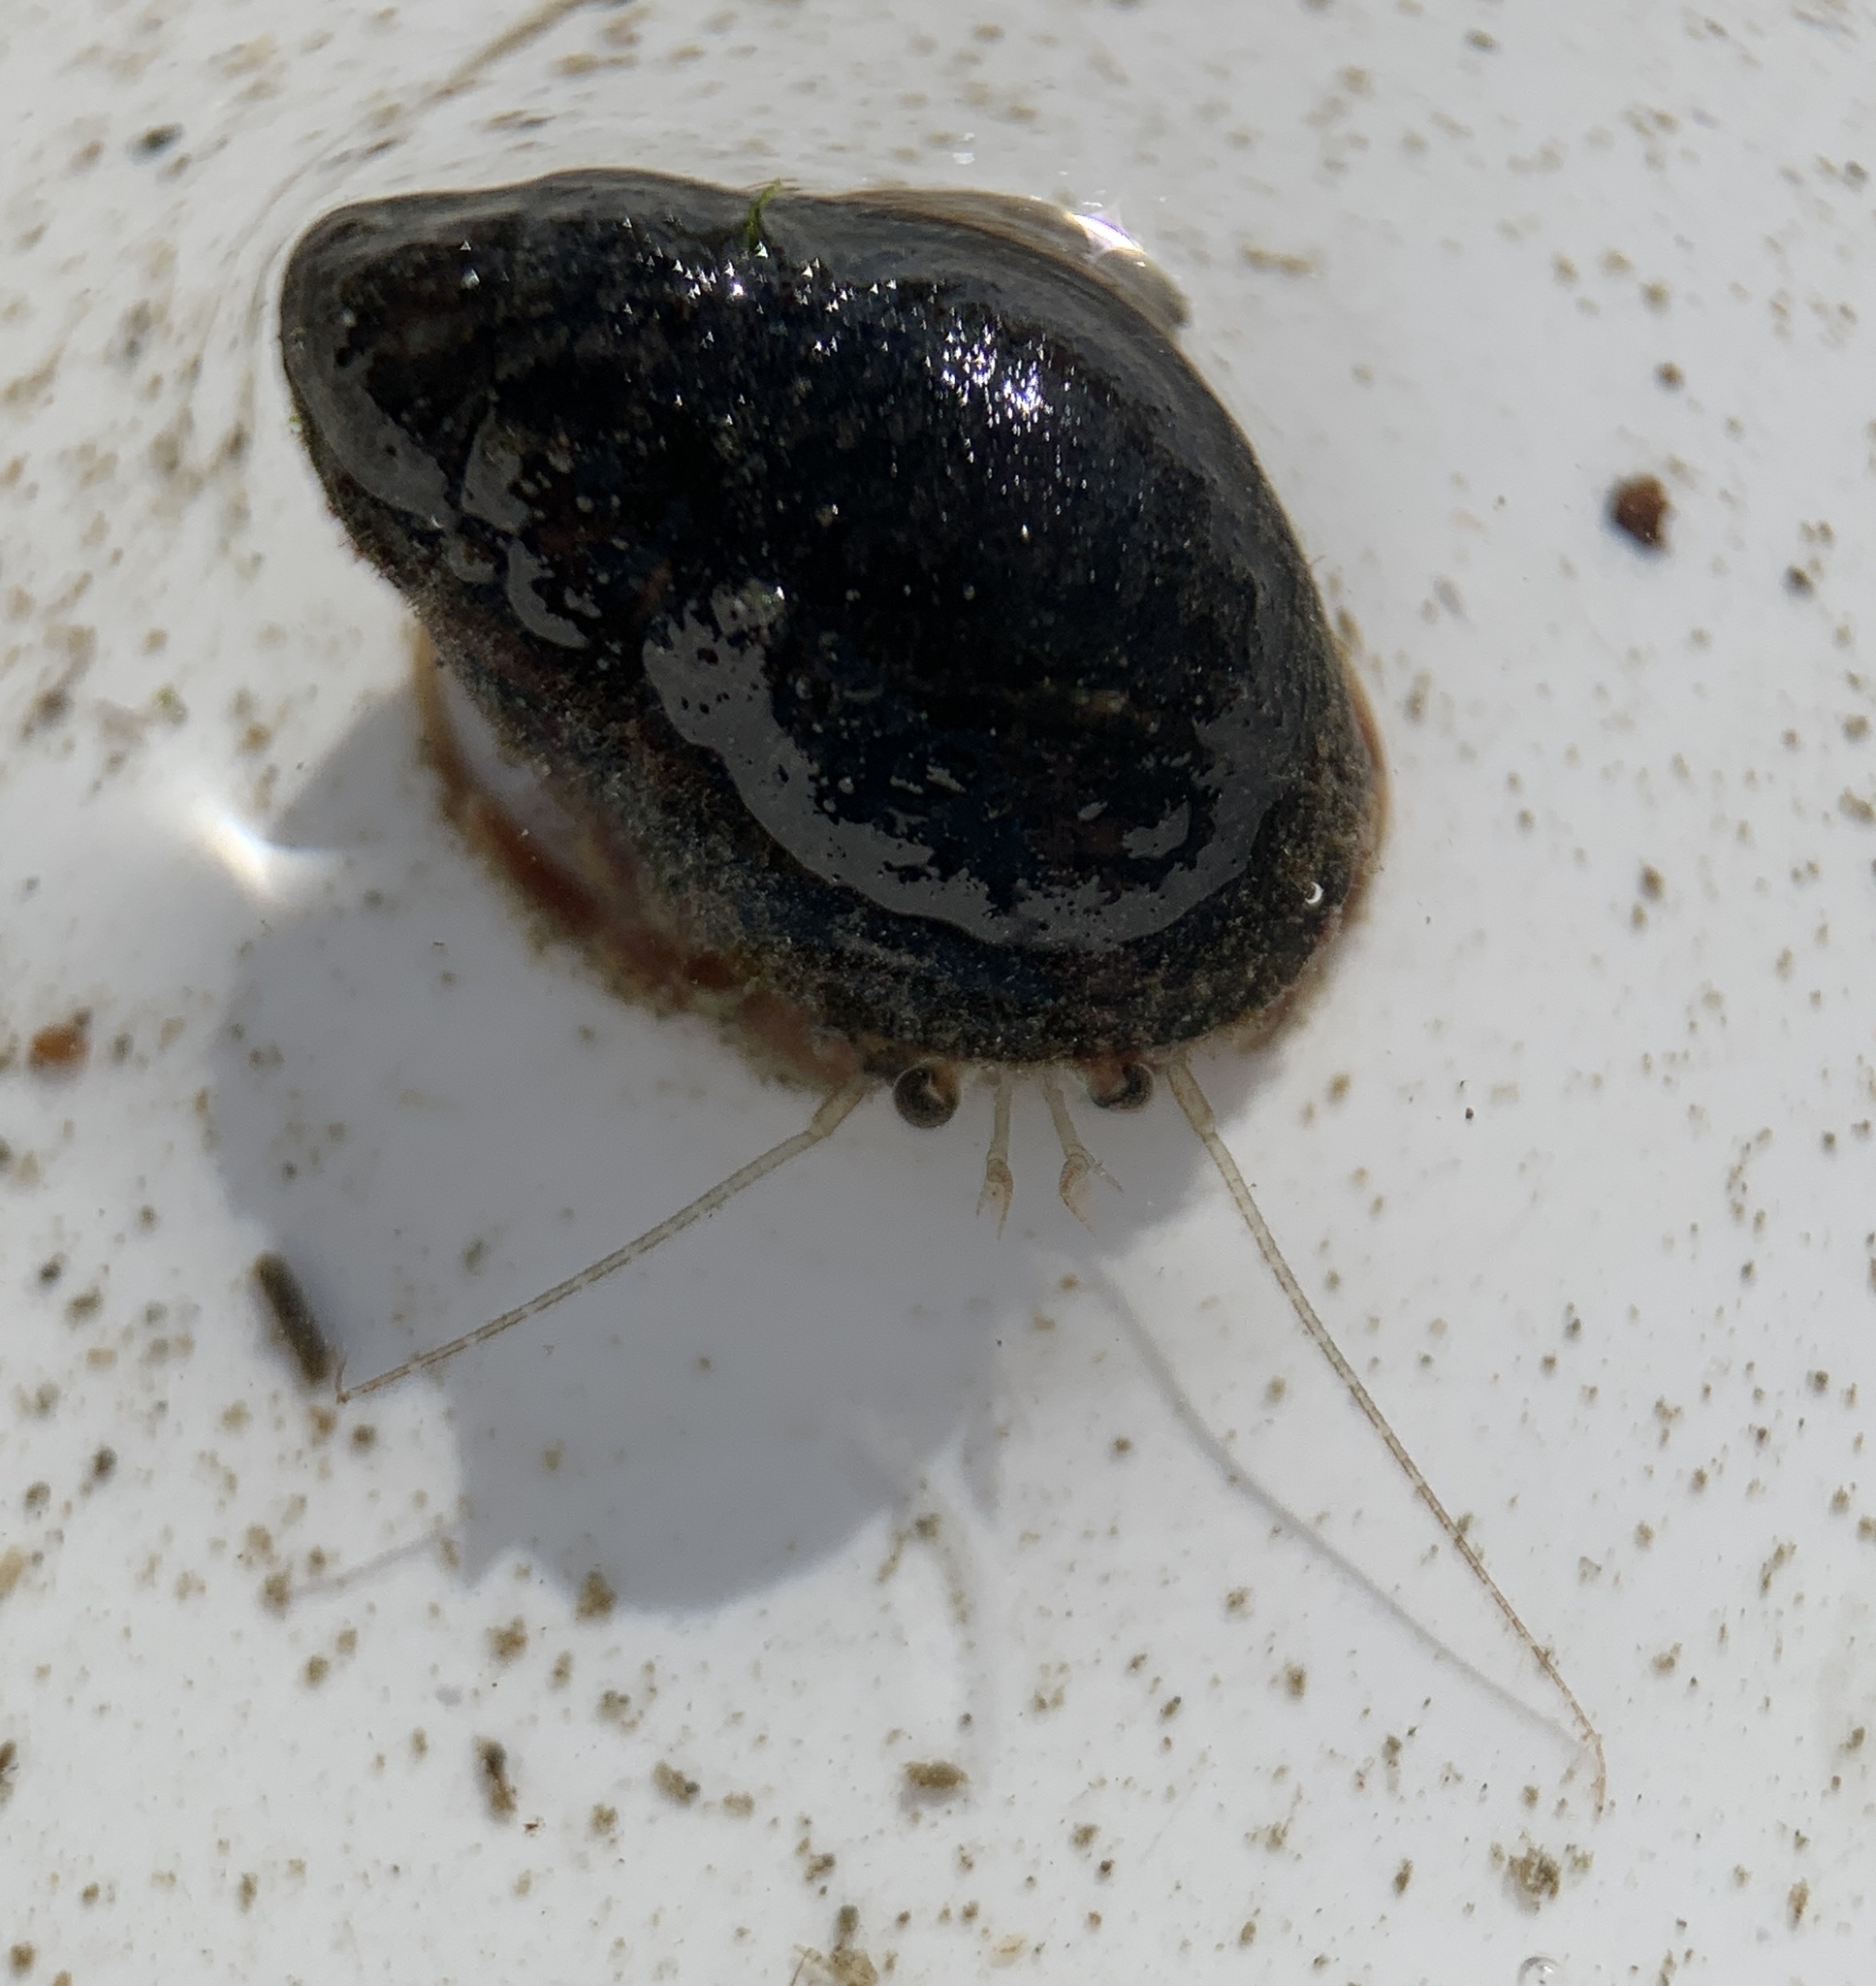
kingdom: Animalia
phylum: Arthropoda
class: Malacostraca
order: Decapoda
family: Paguridae
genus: Pagurus
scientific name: Pagurus longicarpus
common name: Long-armed hermit crab
